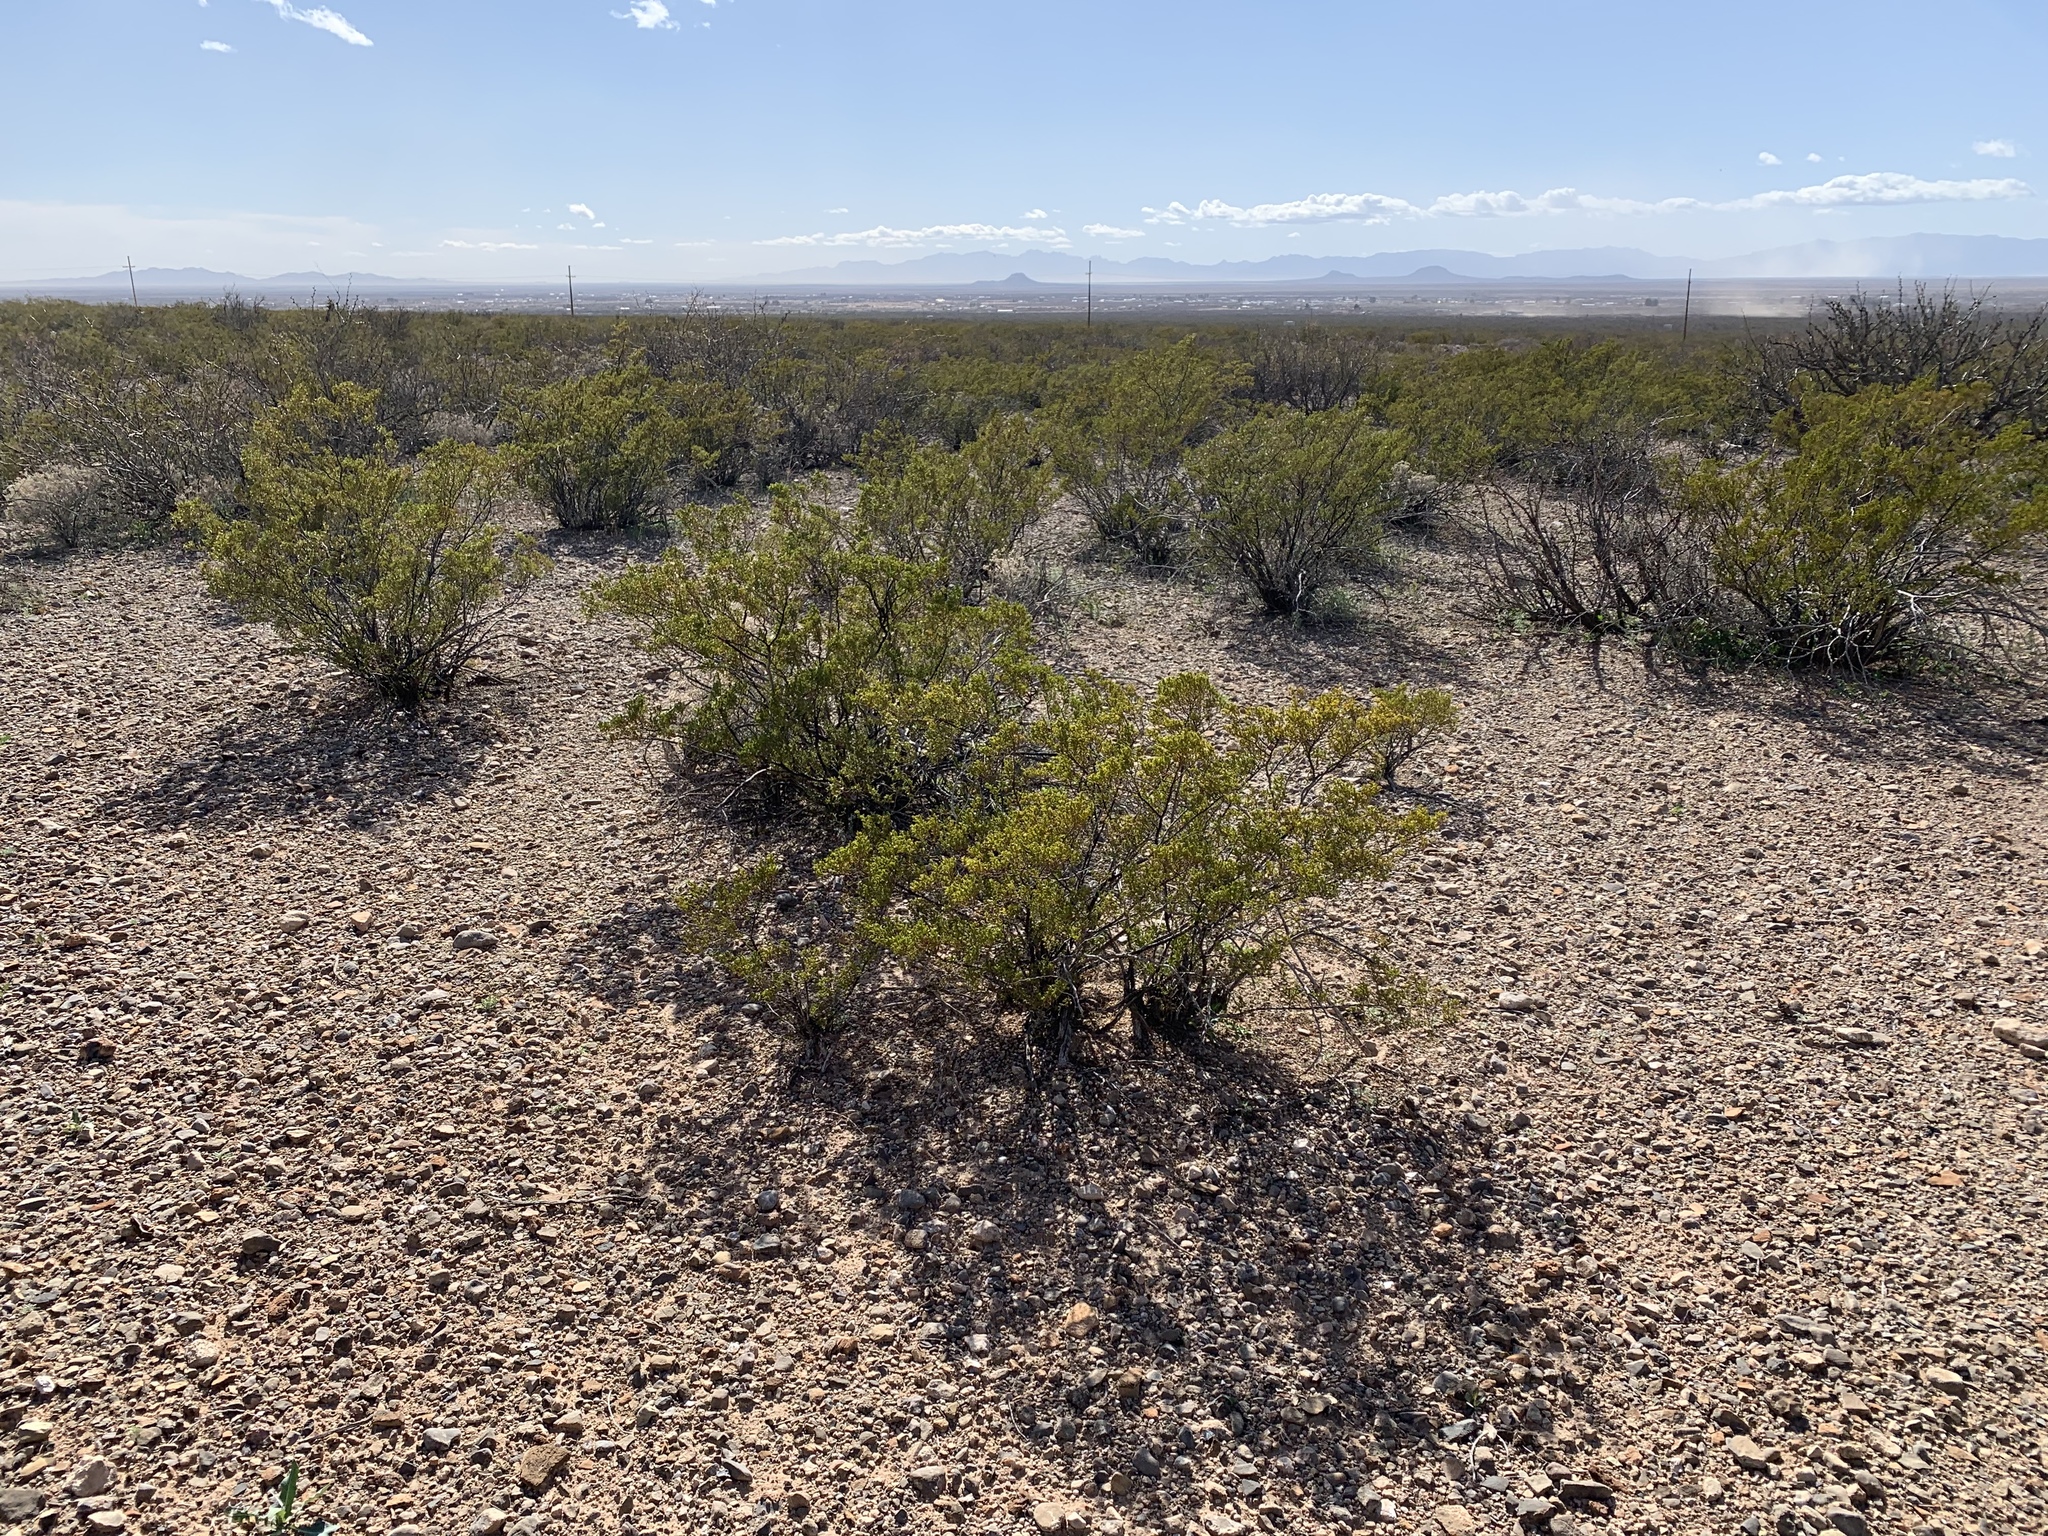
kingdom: Plantae
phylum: Tracheophyta
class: Magnoliopsida
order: Zygophyllales
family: Zygophyllaceae
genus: Larrea
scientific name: Larrea tridentata
